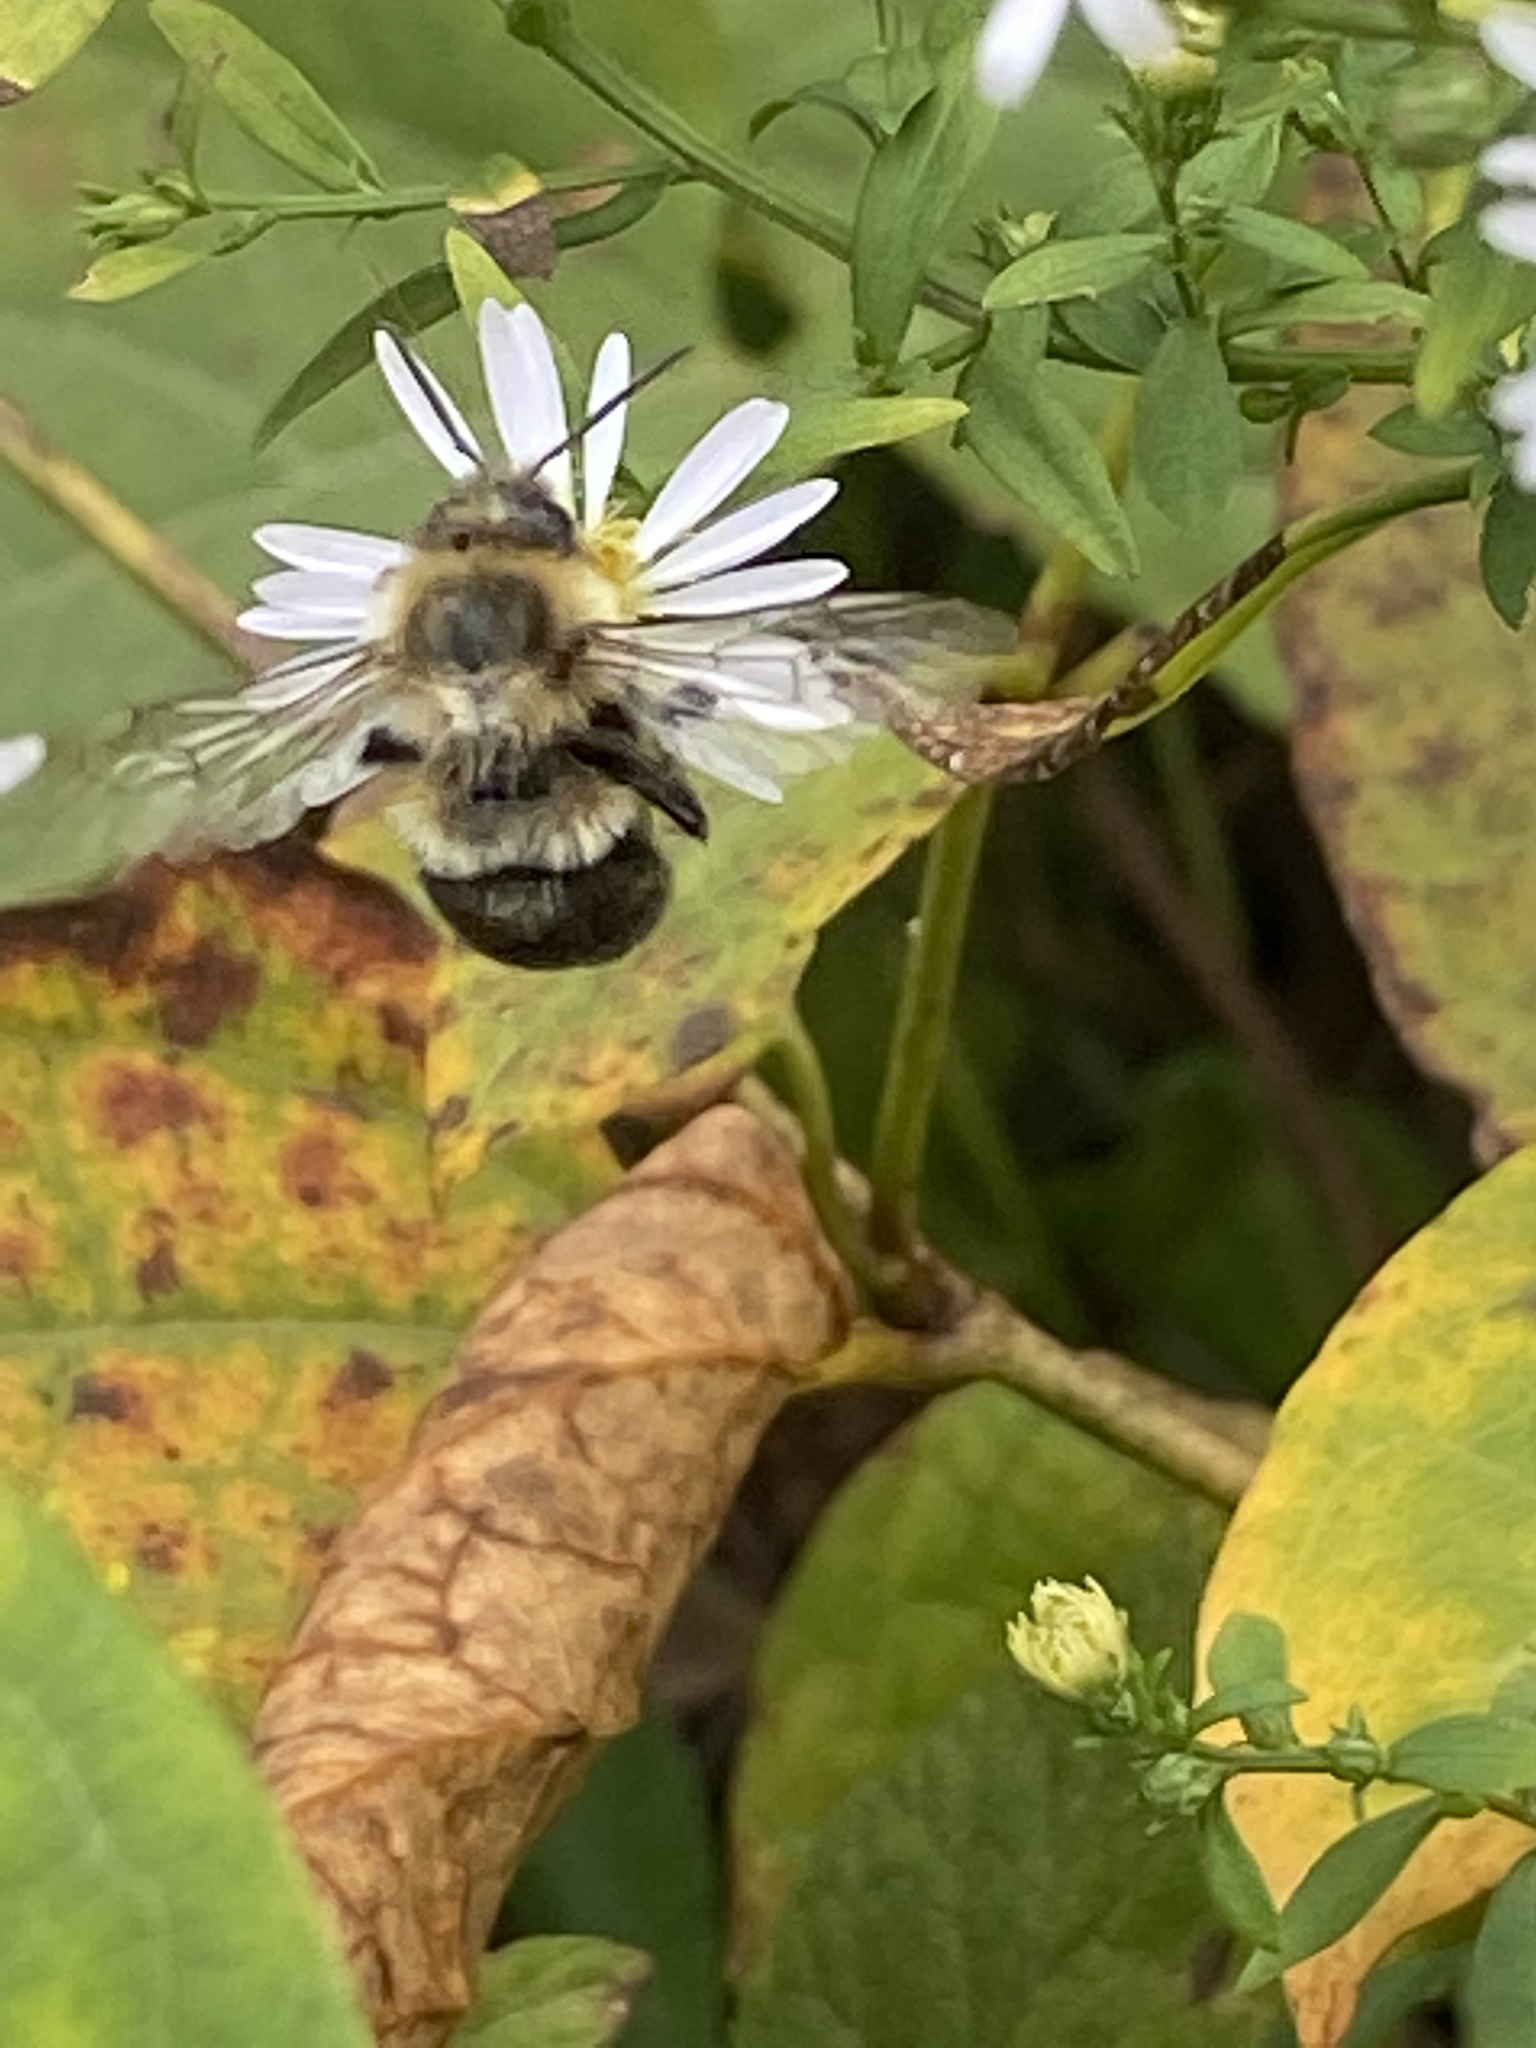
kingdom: Animalia
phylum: Arthropoda
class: Insecta
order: Hymenoptera
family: Apidae
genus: Bombus
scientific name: Bombus impatiens
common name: Common eastern bumble bee
